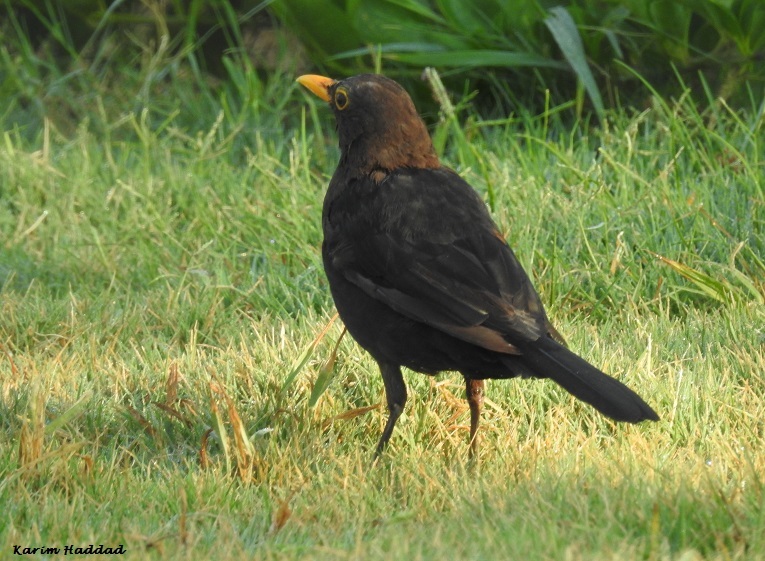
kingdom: Animalia
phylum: Chordata
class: Aves
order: Passeriformes
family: Turdidae
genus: Turdus
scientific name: Turdus merula
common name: Common blackbird
